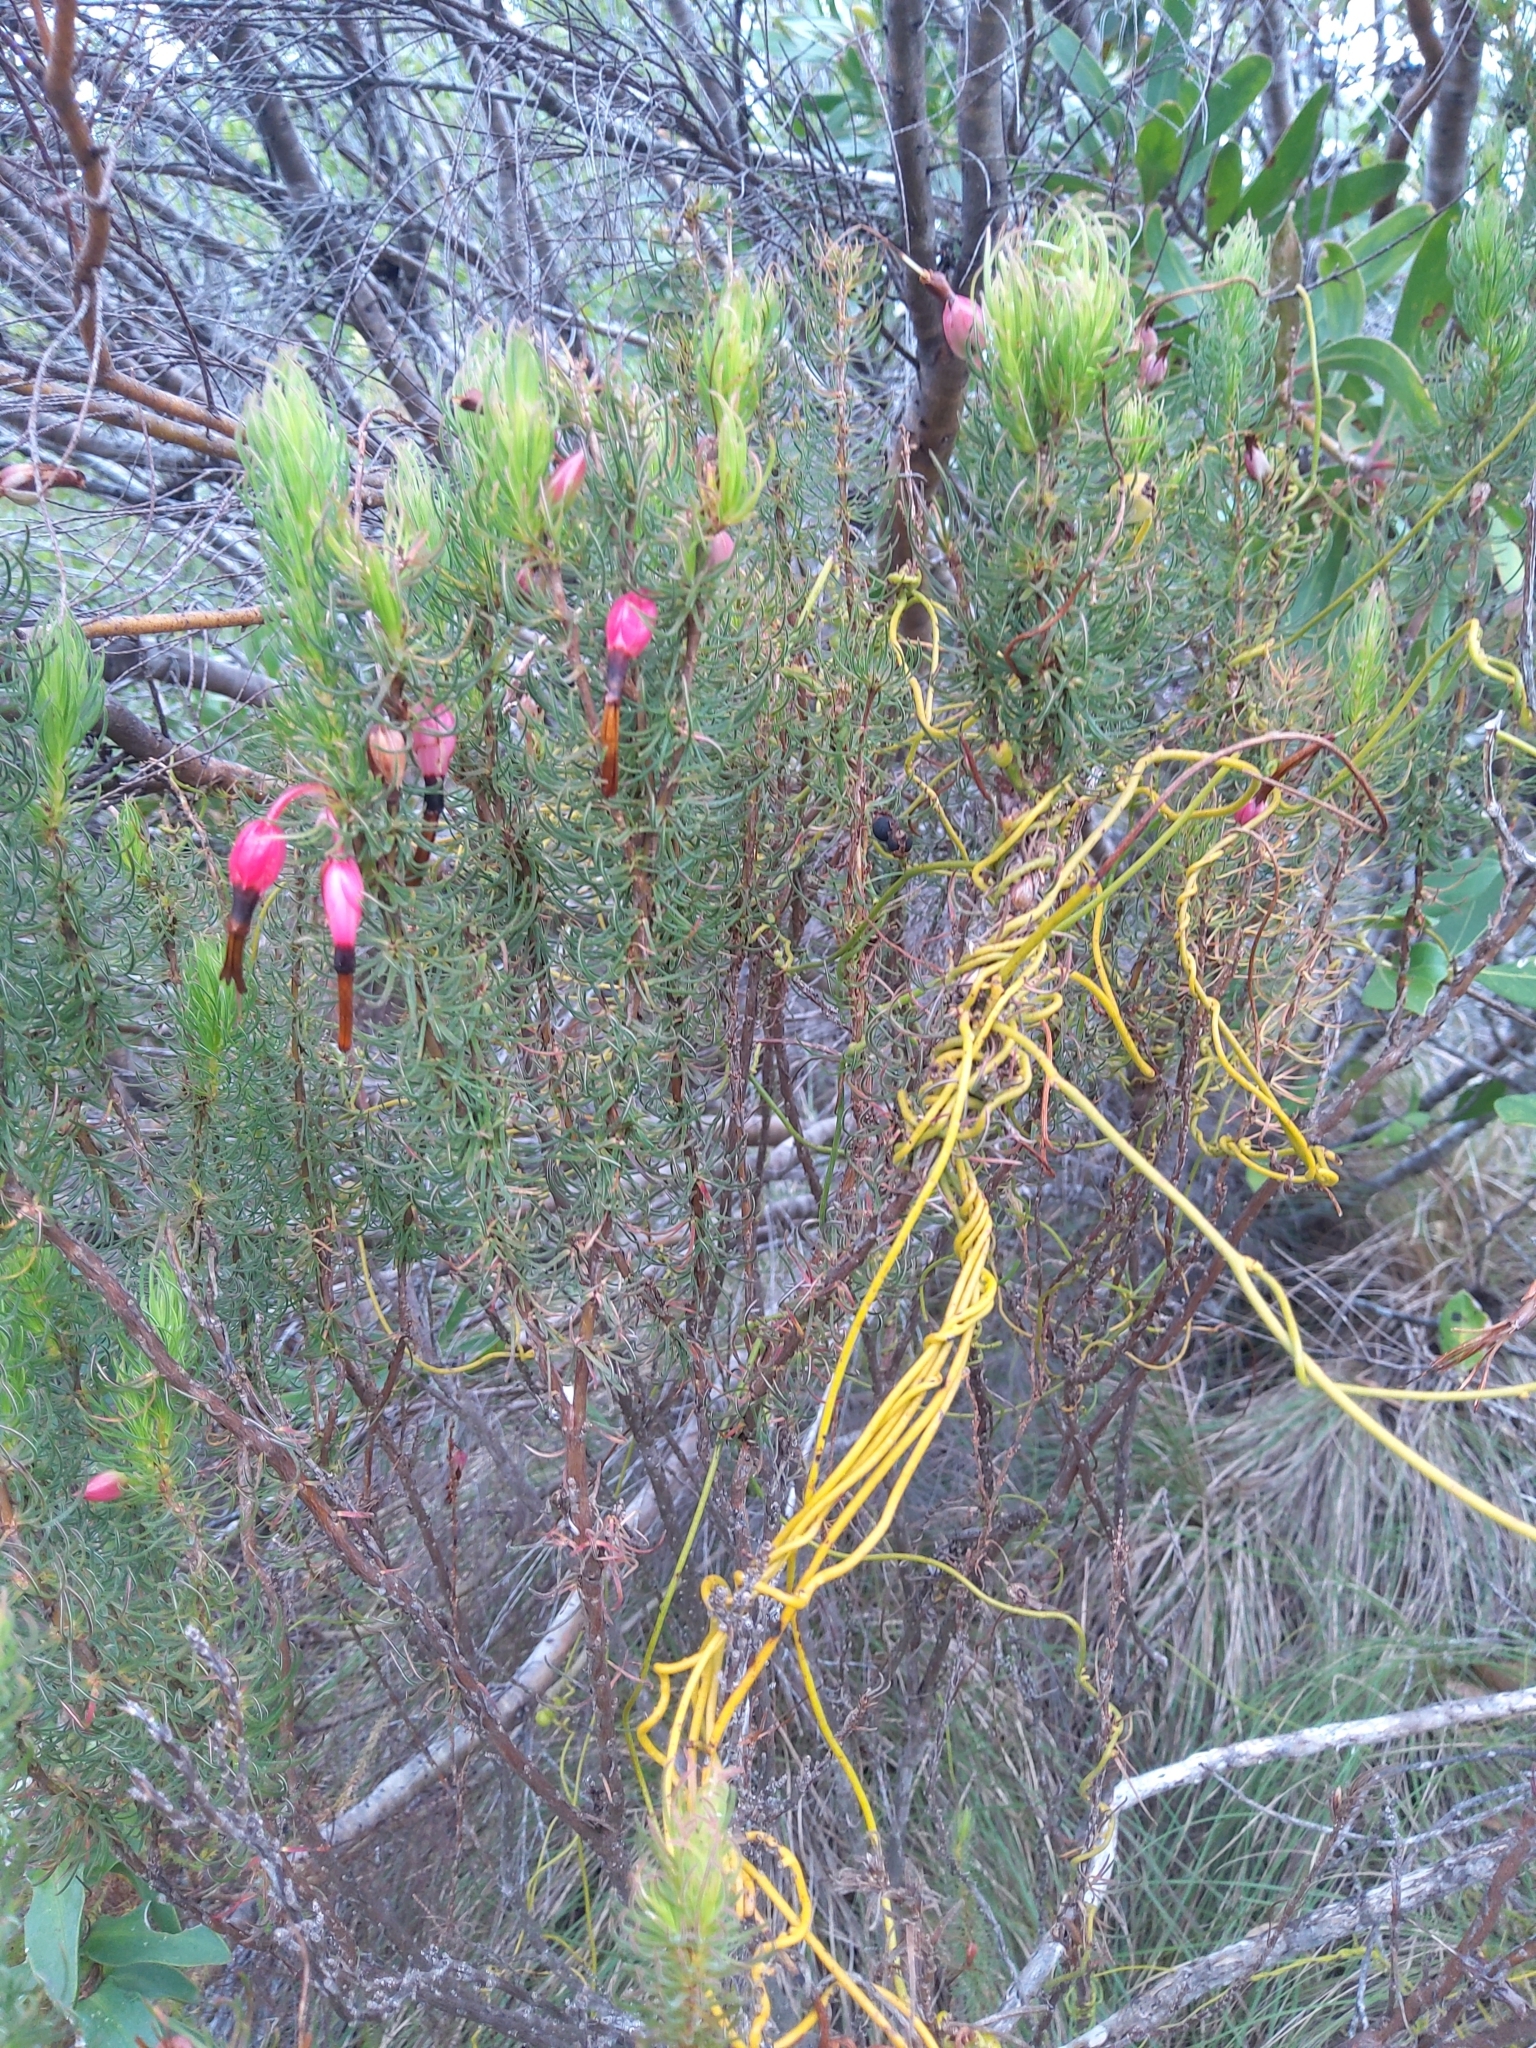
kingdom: Plantae
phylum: Tracheophyta
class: Magnoliopsida
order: Ericales
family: Ericaceae
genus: Erica
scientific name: Erica plukenetii
